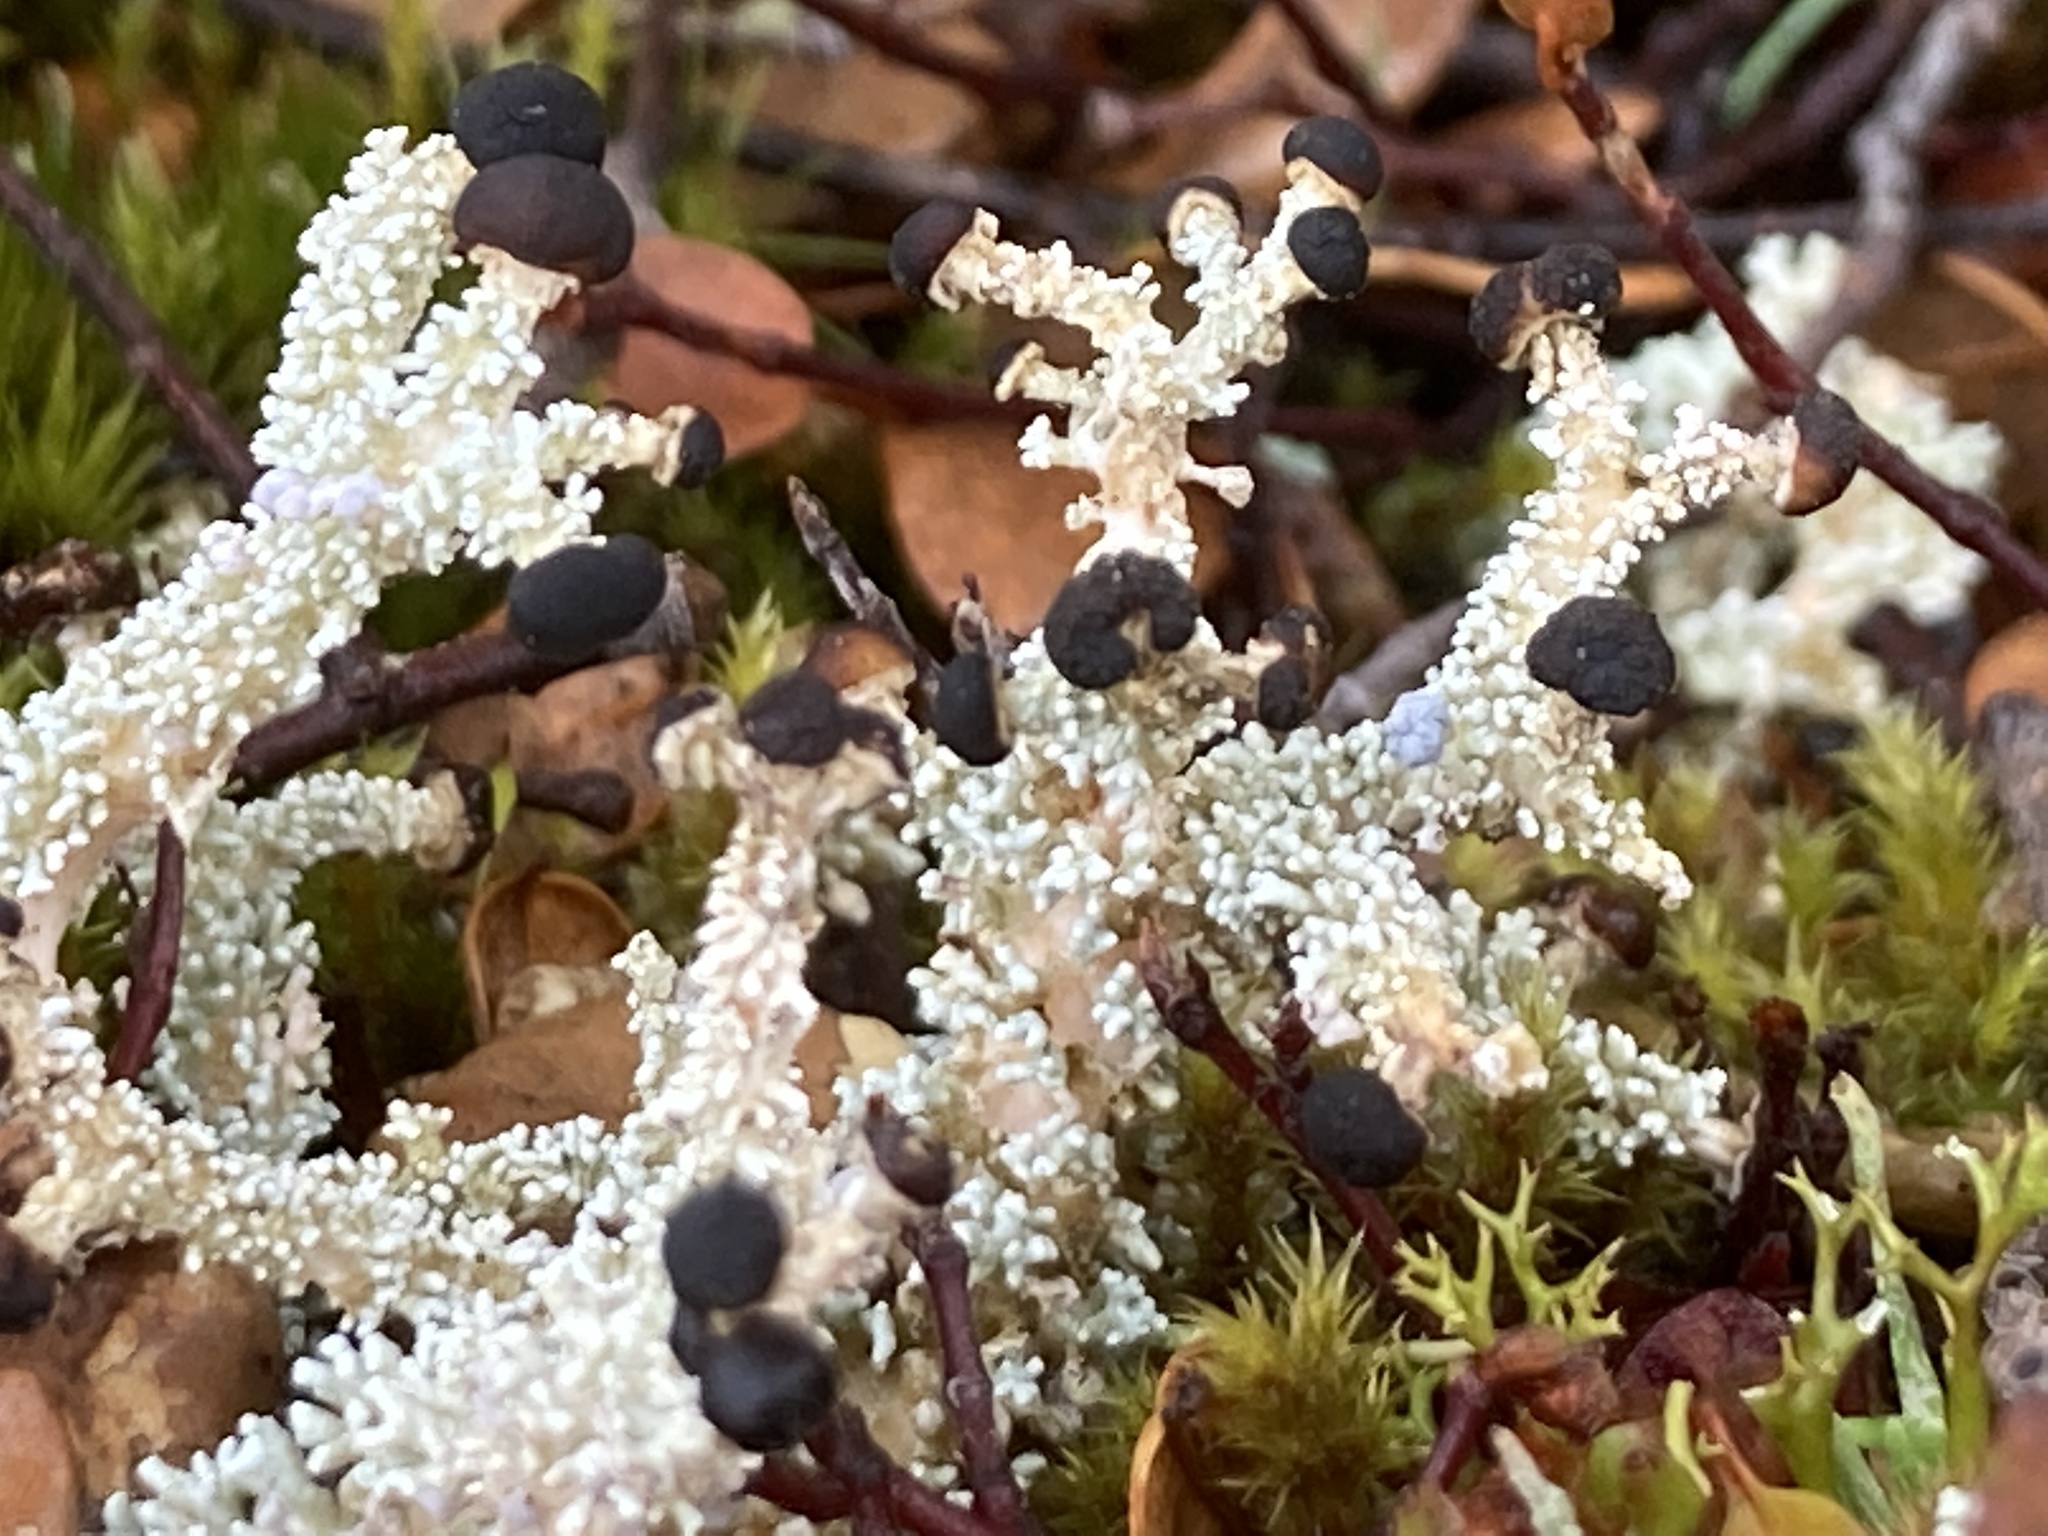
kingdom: Fungi
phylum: Ascomycota
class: Lecanoromycetes
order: Lecanorales
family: Stereocaulaceae
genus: Stereocaulon
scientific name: Stereocaulon
